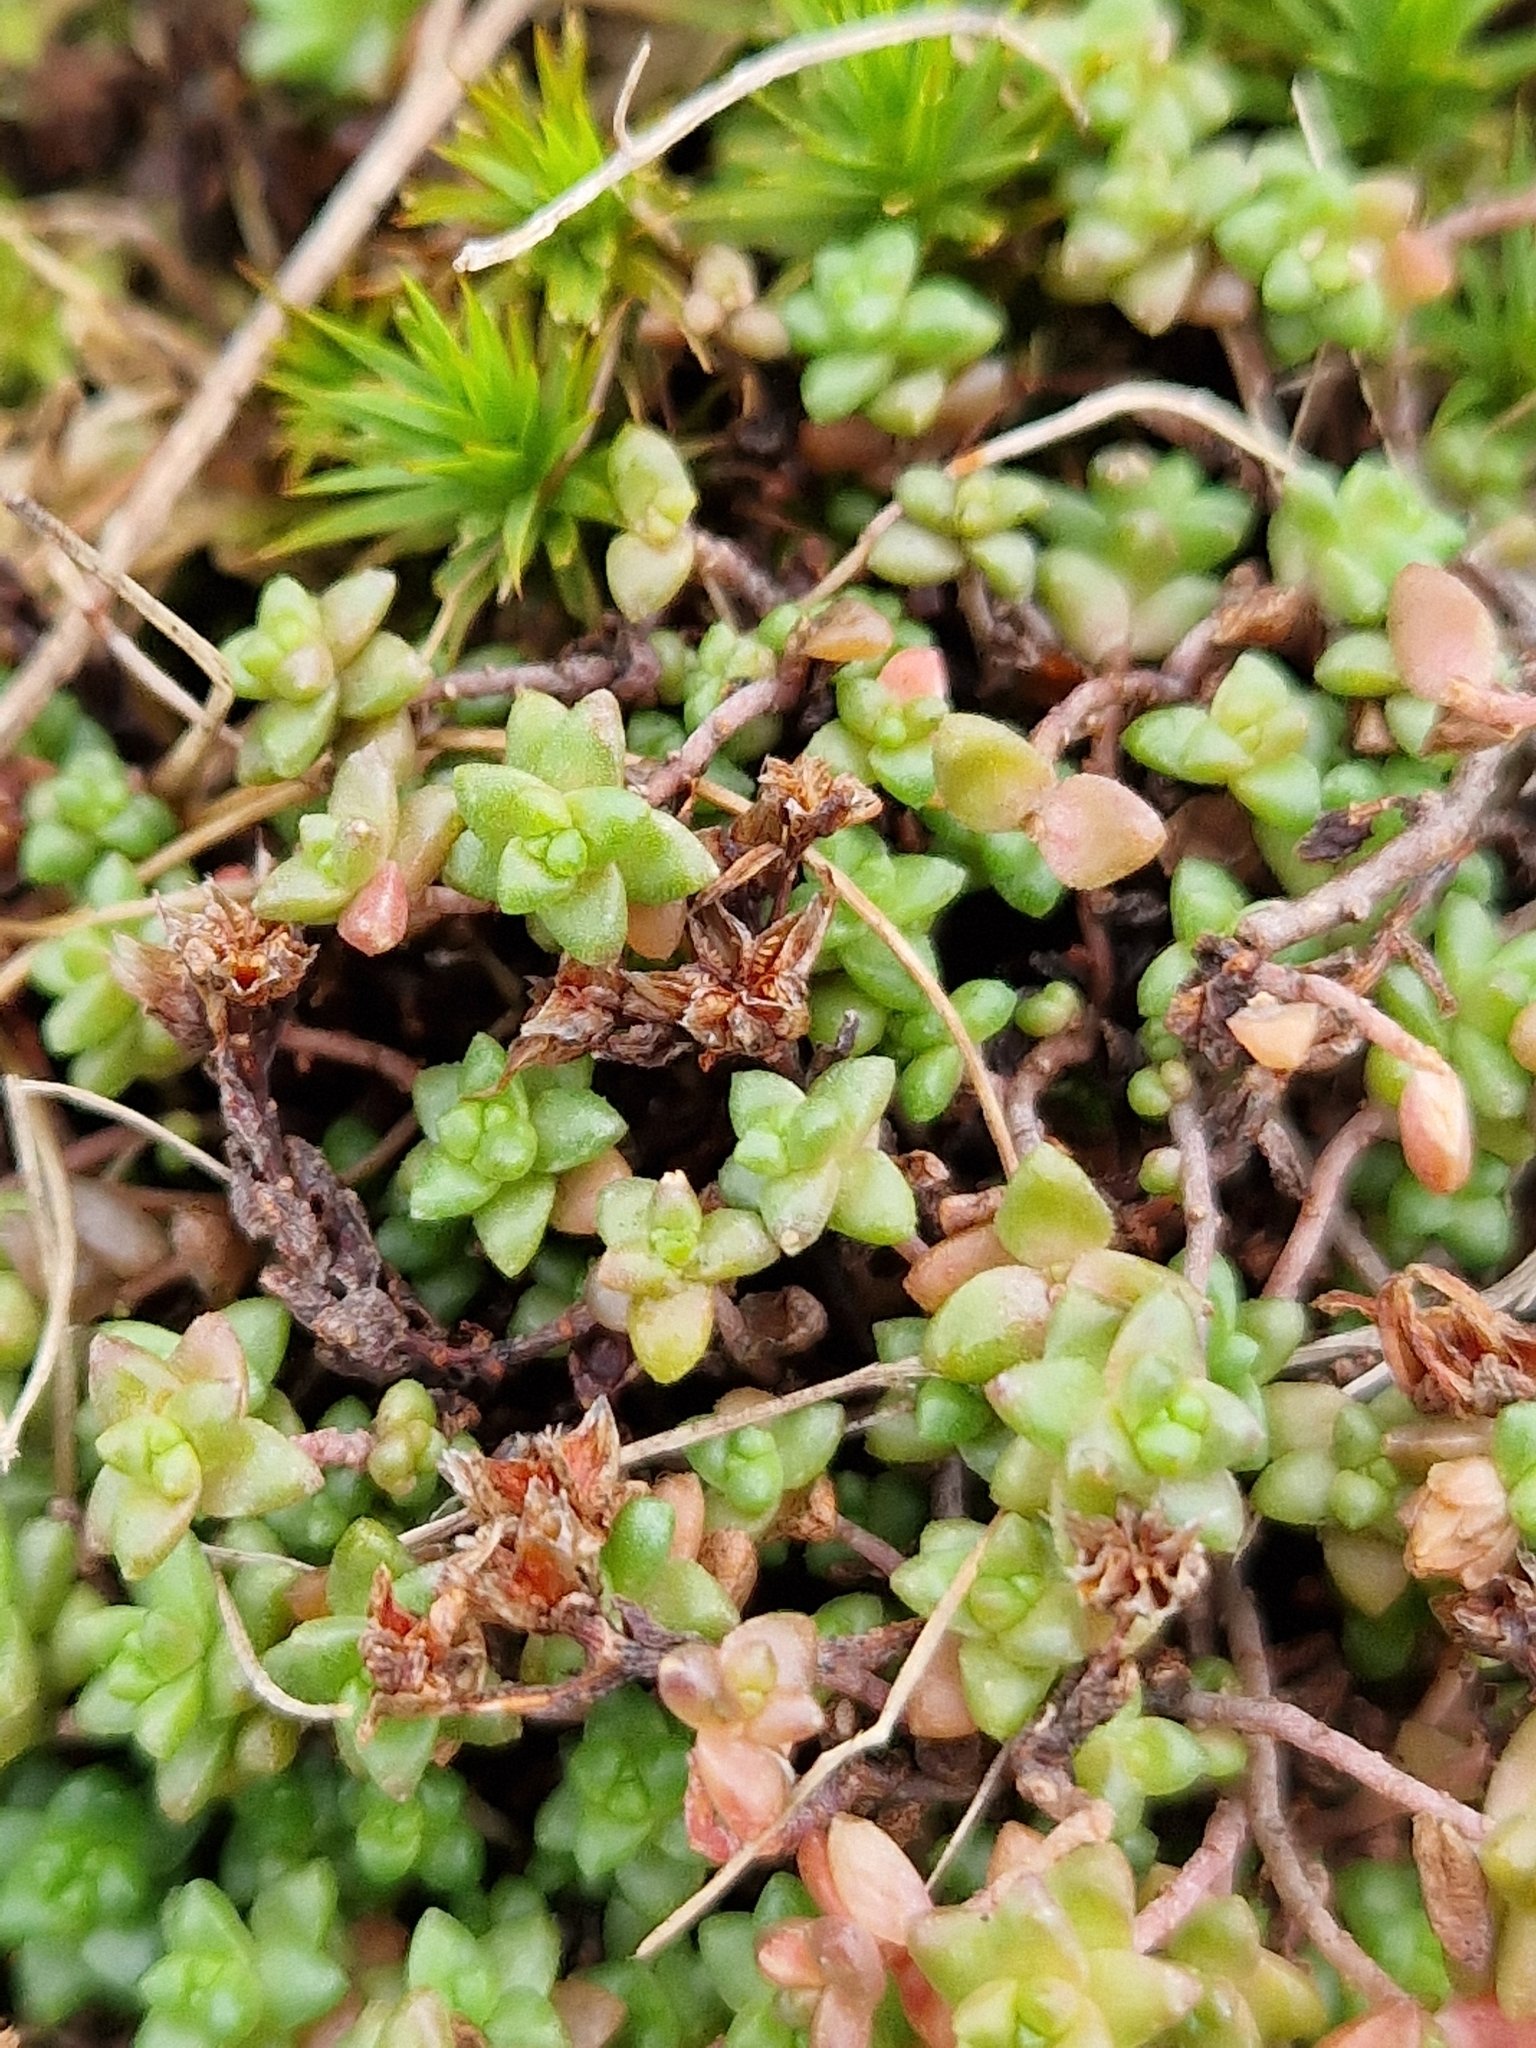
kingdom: Plantae
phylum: Tracheophyta
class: Magnoliopsida
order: Saxifragales
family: Crassulaceae
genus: Sedum
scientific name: Sedum anglicum
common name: English stonecrop
